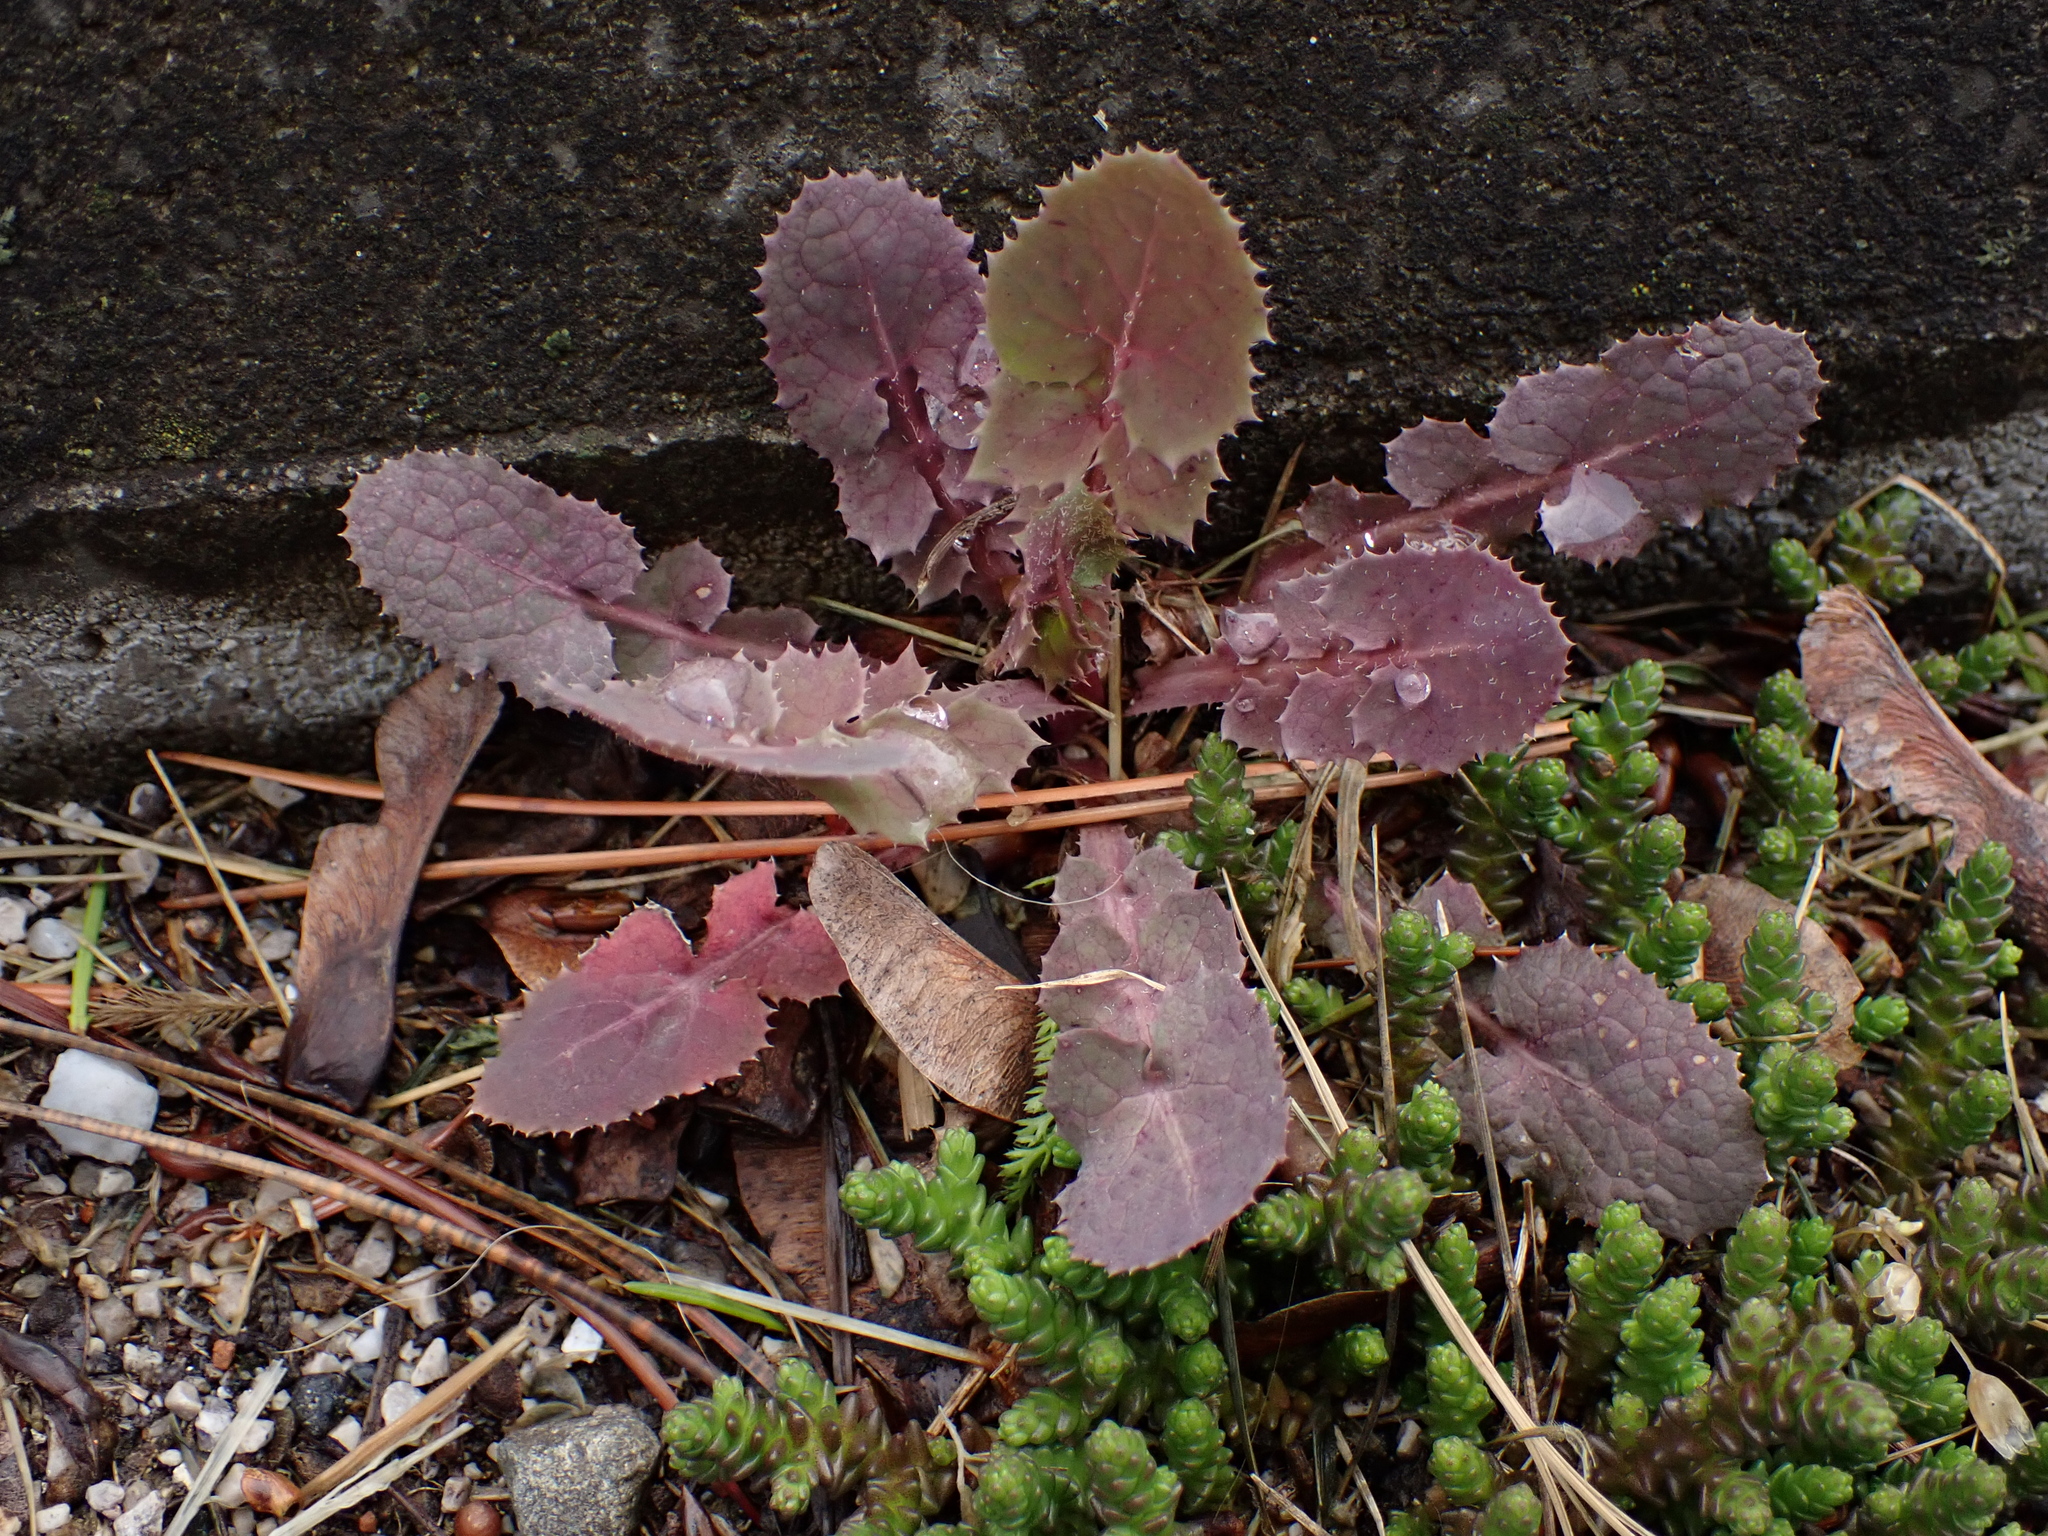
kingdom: Plantae
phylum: Tracheophyta
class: Magnoliopsida
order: Asterales
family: Asteraceae
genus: Sonchus
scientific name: Sonchus oleraceus
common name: Common sowthistle
